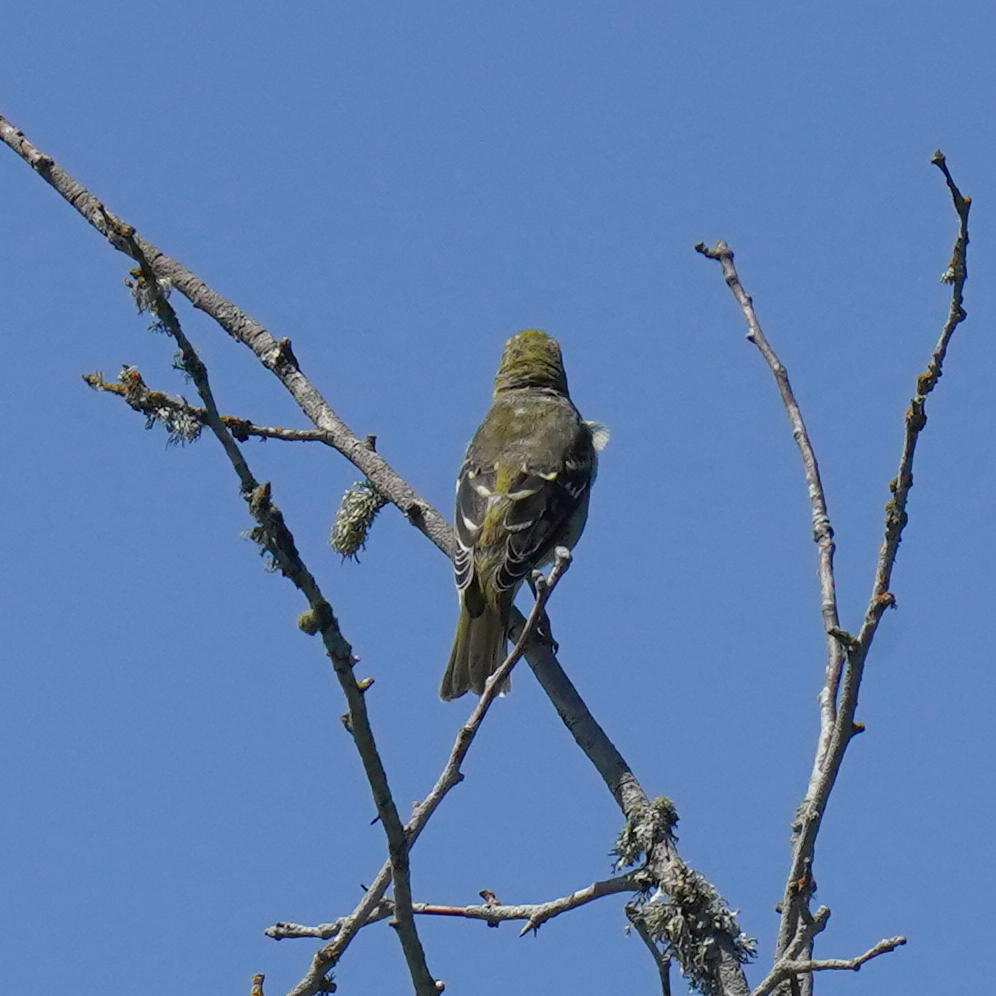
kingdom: Animalia
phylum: Chordata
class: Aves
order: Passeriformes
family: Cardinalidae
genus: Piranga
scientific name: Piranga ludoviciana
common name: Western tanager
